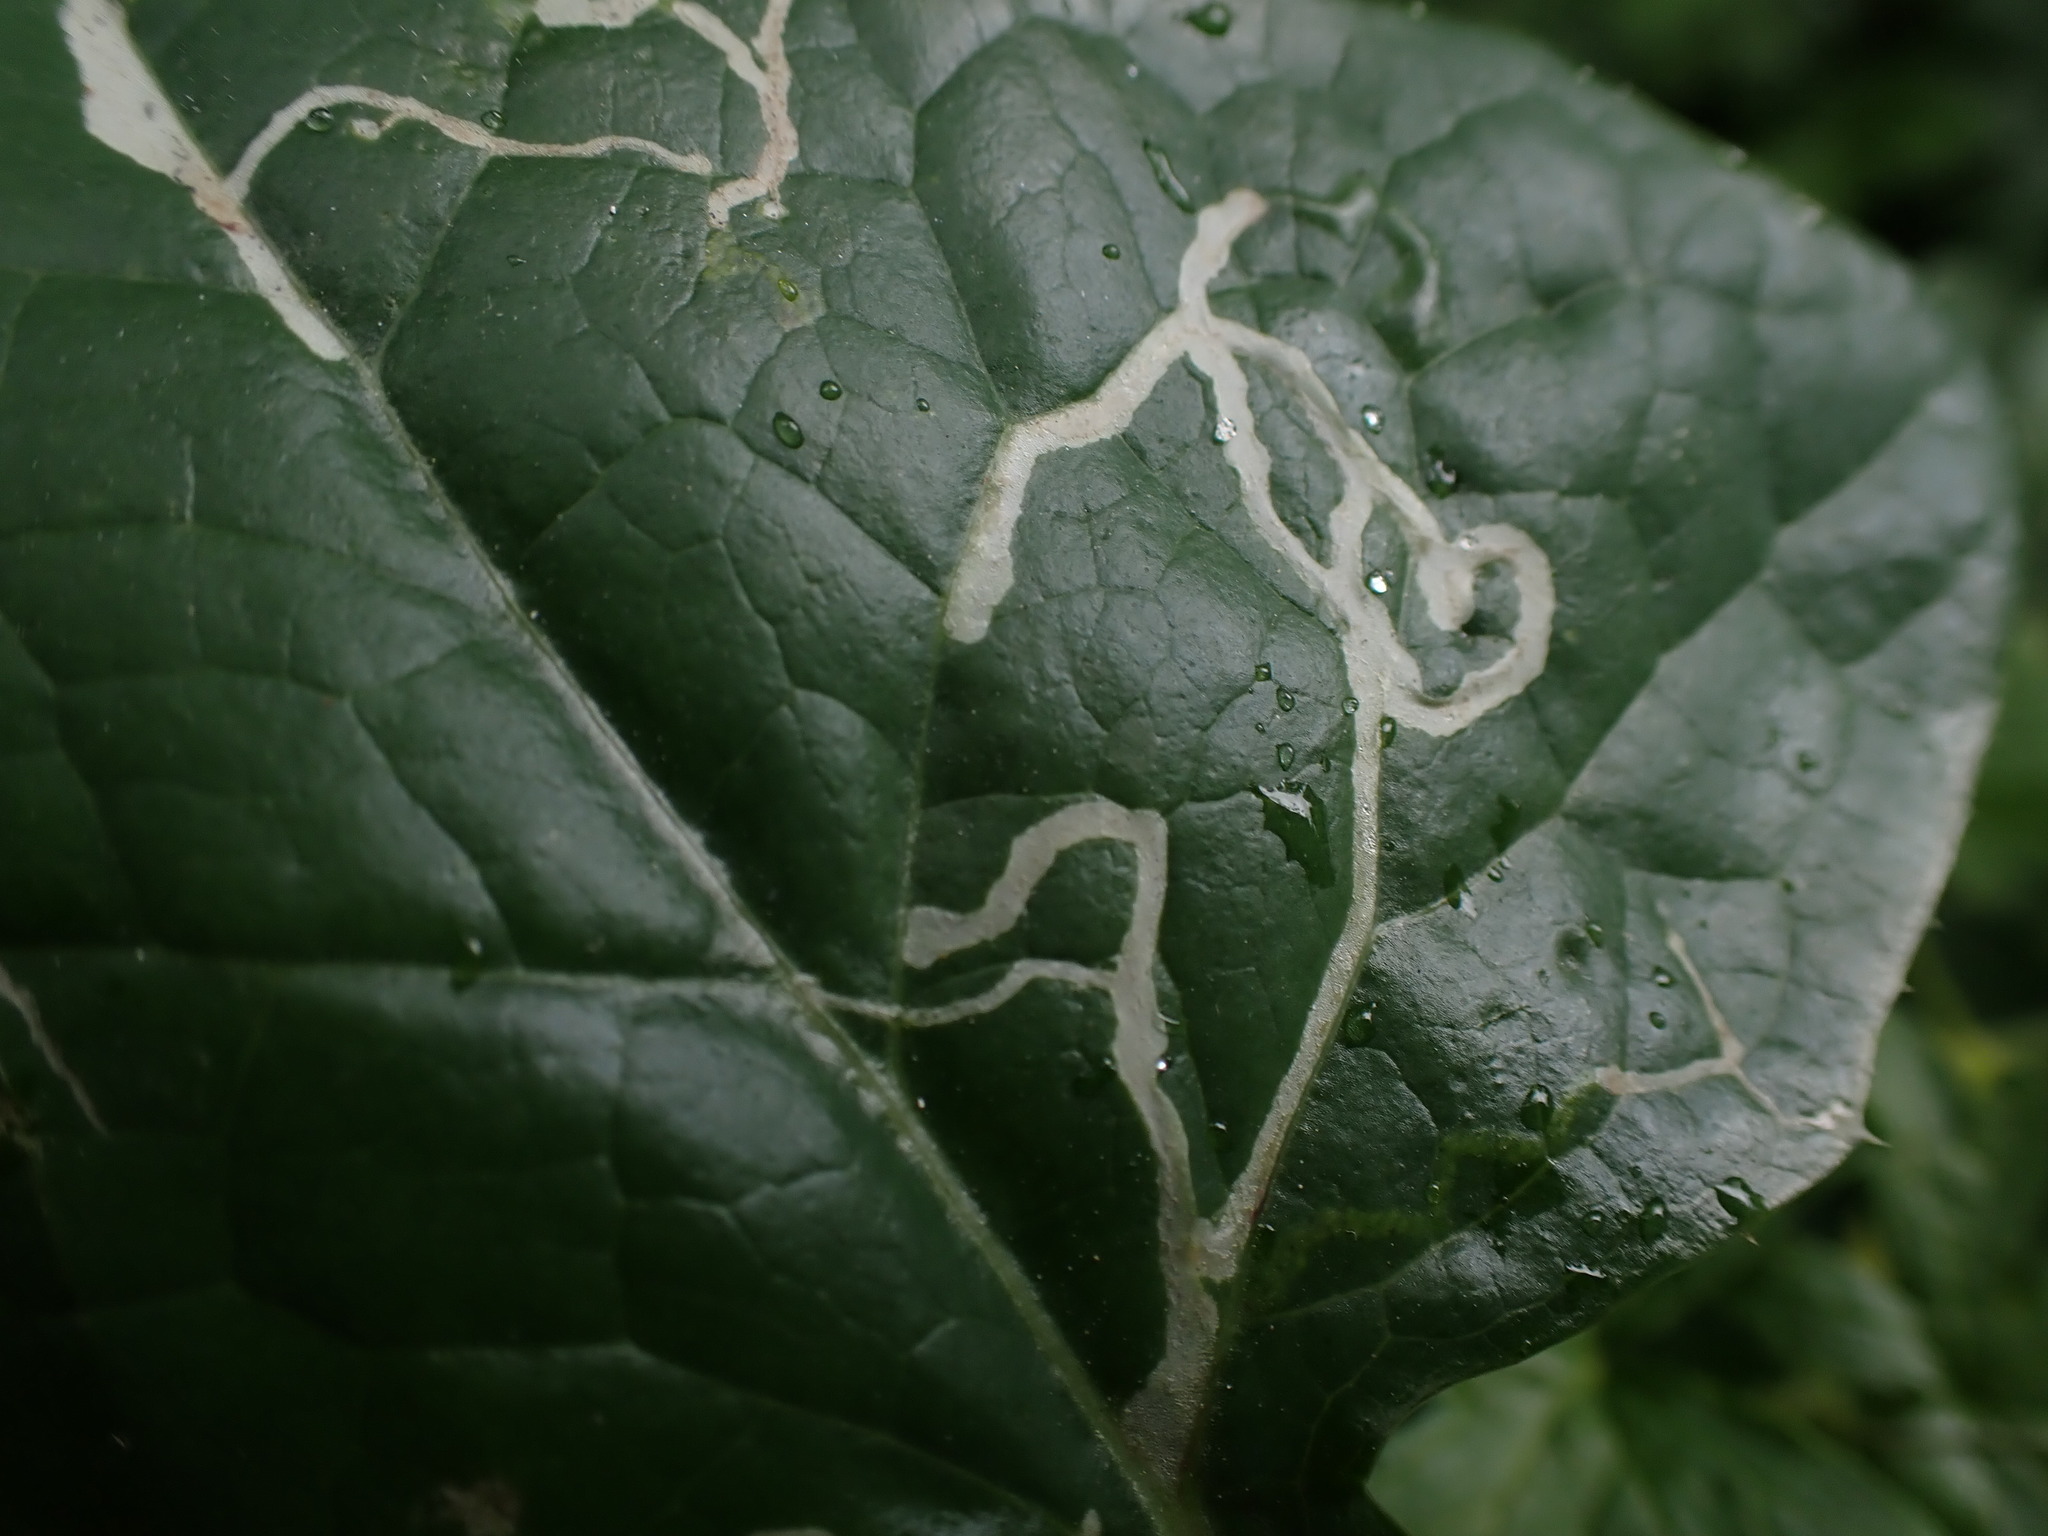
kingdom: Animalia
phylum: Arthropoda
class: Insecta
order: Diptera
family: Agromyzidae
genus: Phytomyza
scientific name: Phytomyza syngenesiae
